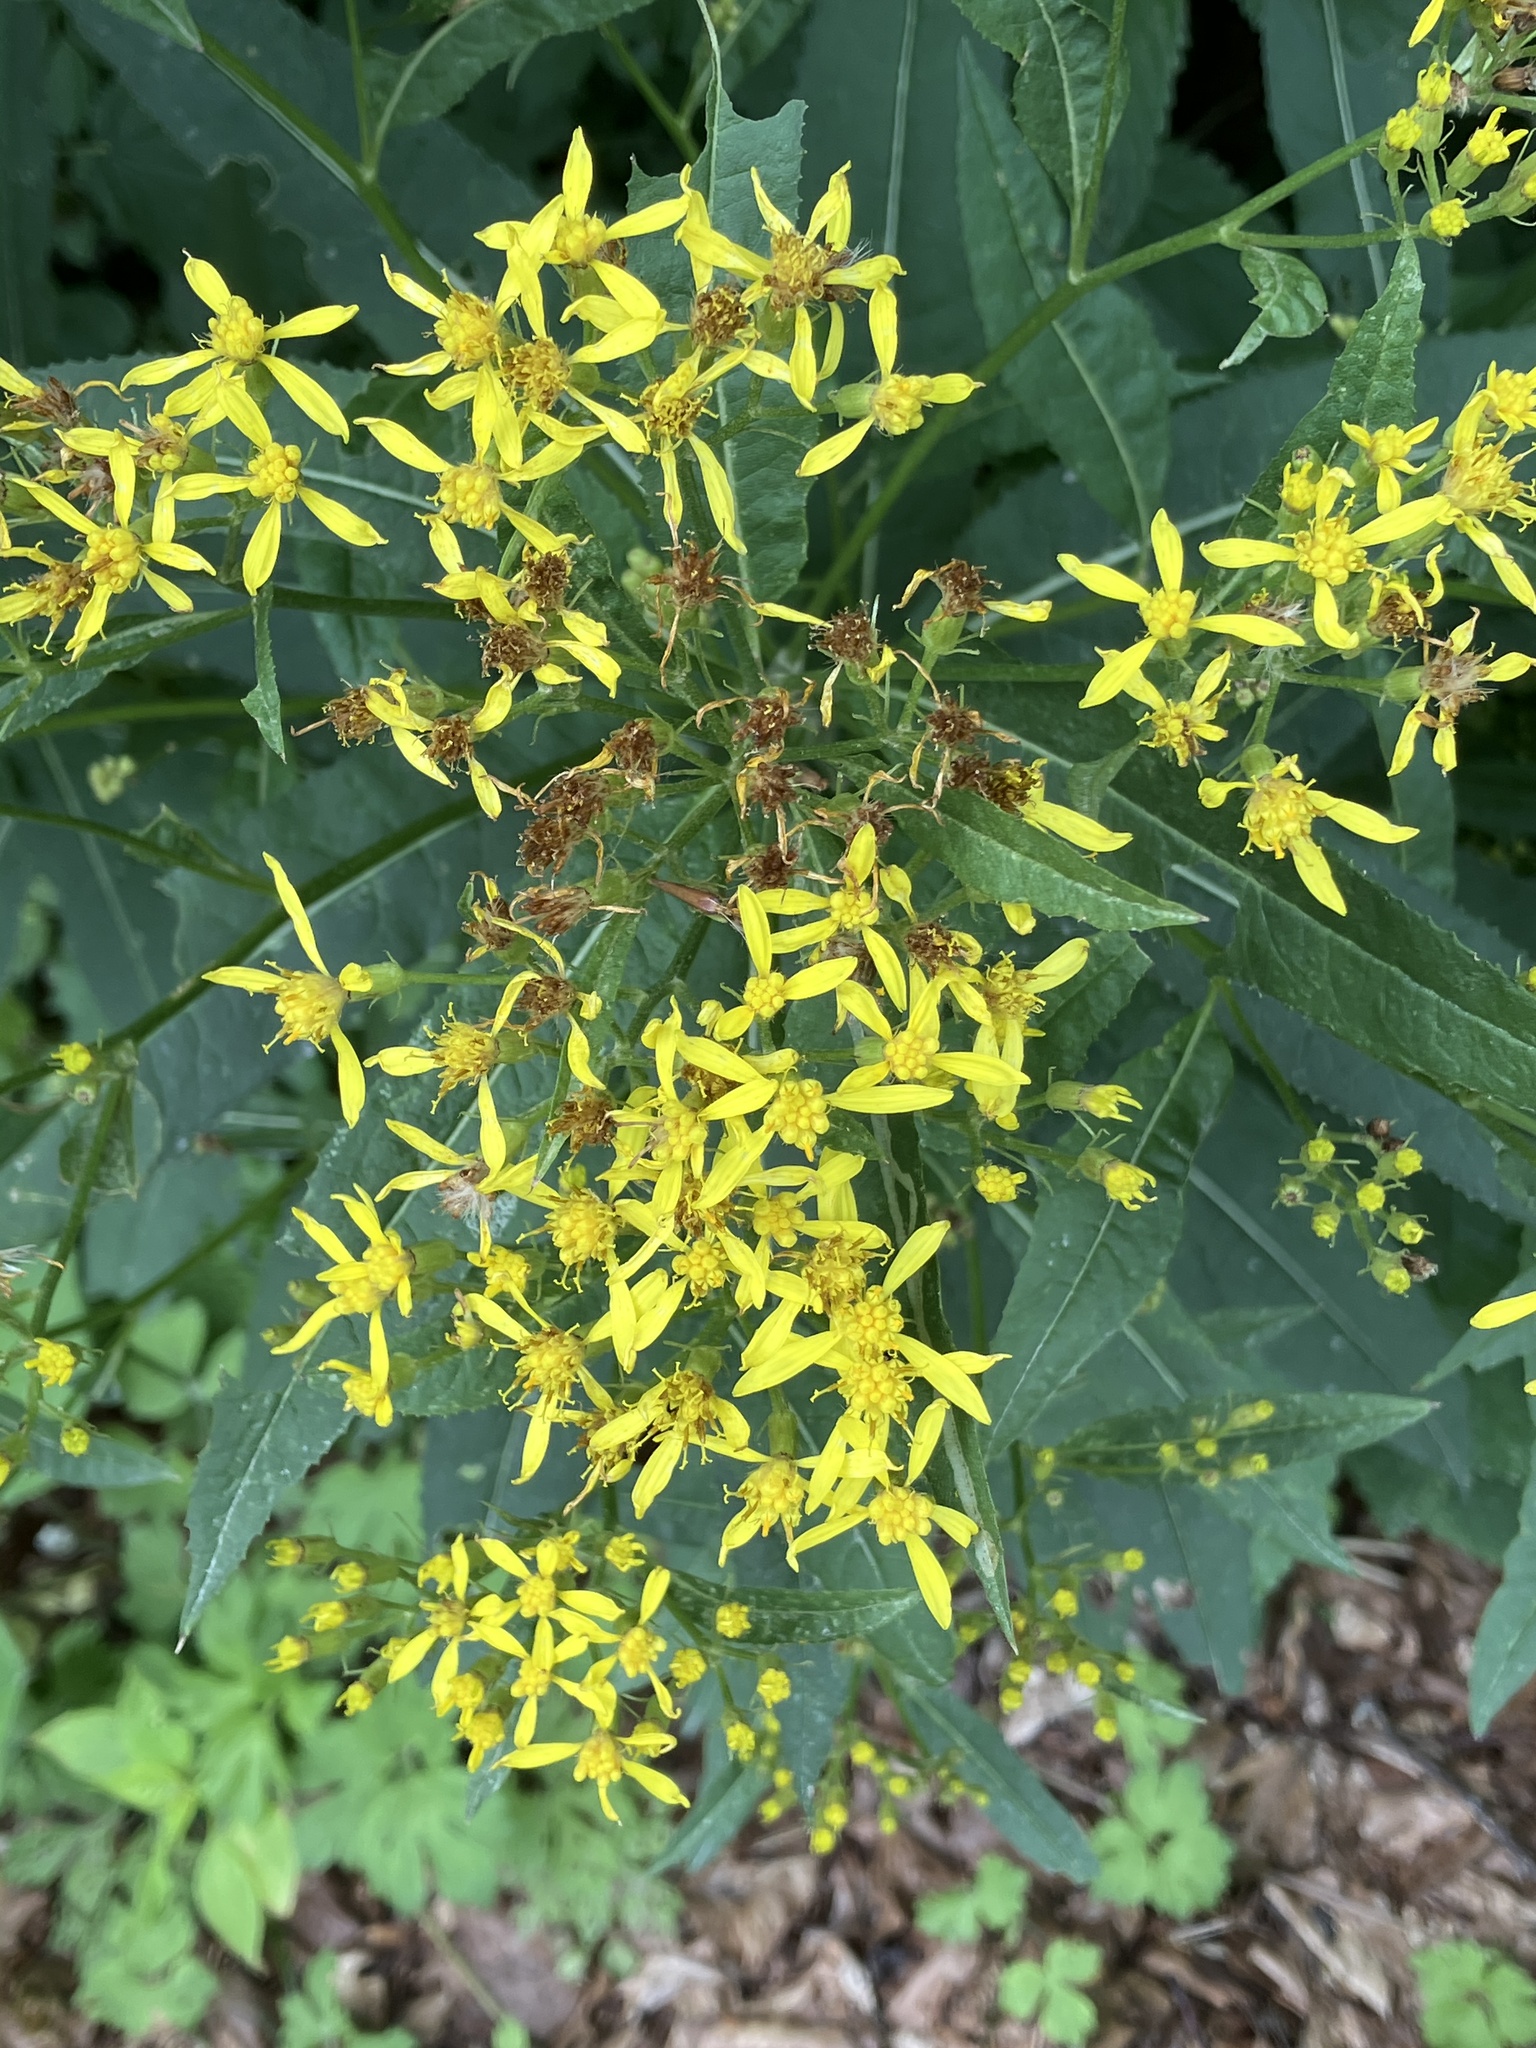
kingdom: Plantae
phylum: Tracheophyta
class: Magnoliopsida
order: Asterales
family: Asteraceae
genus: Senecio
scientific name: Senecio ovatus
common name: Wood ragwort
